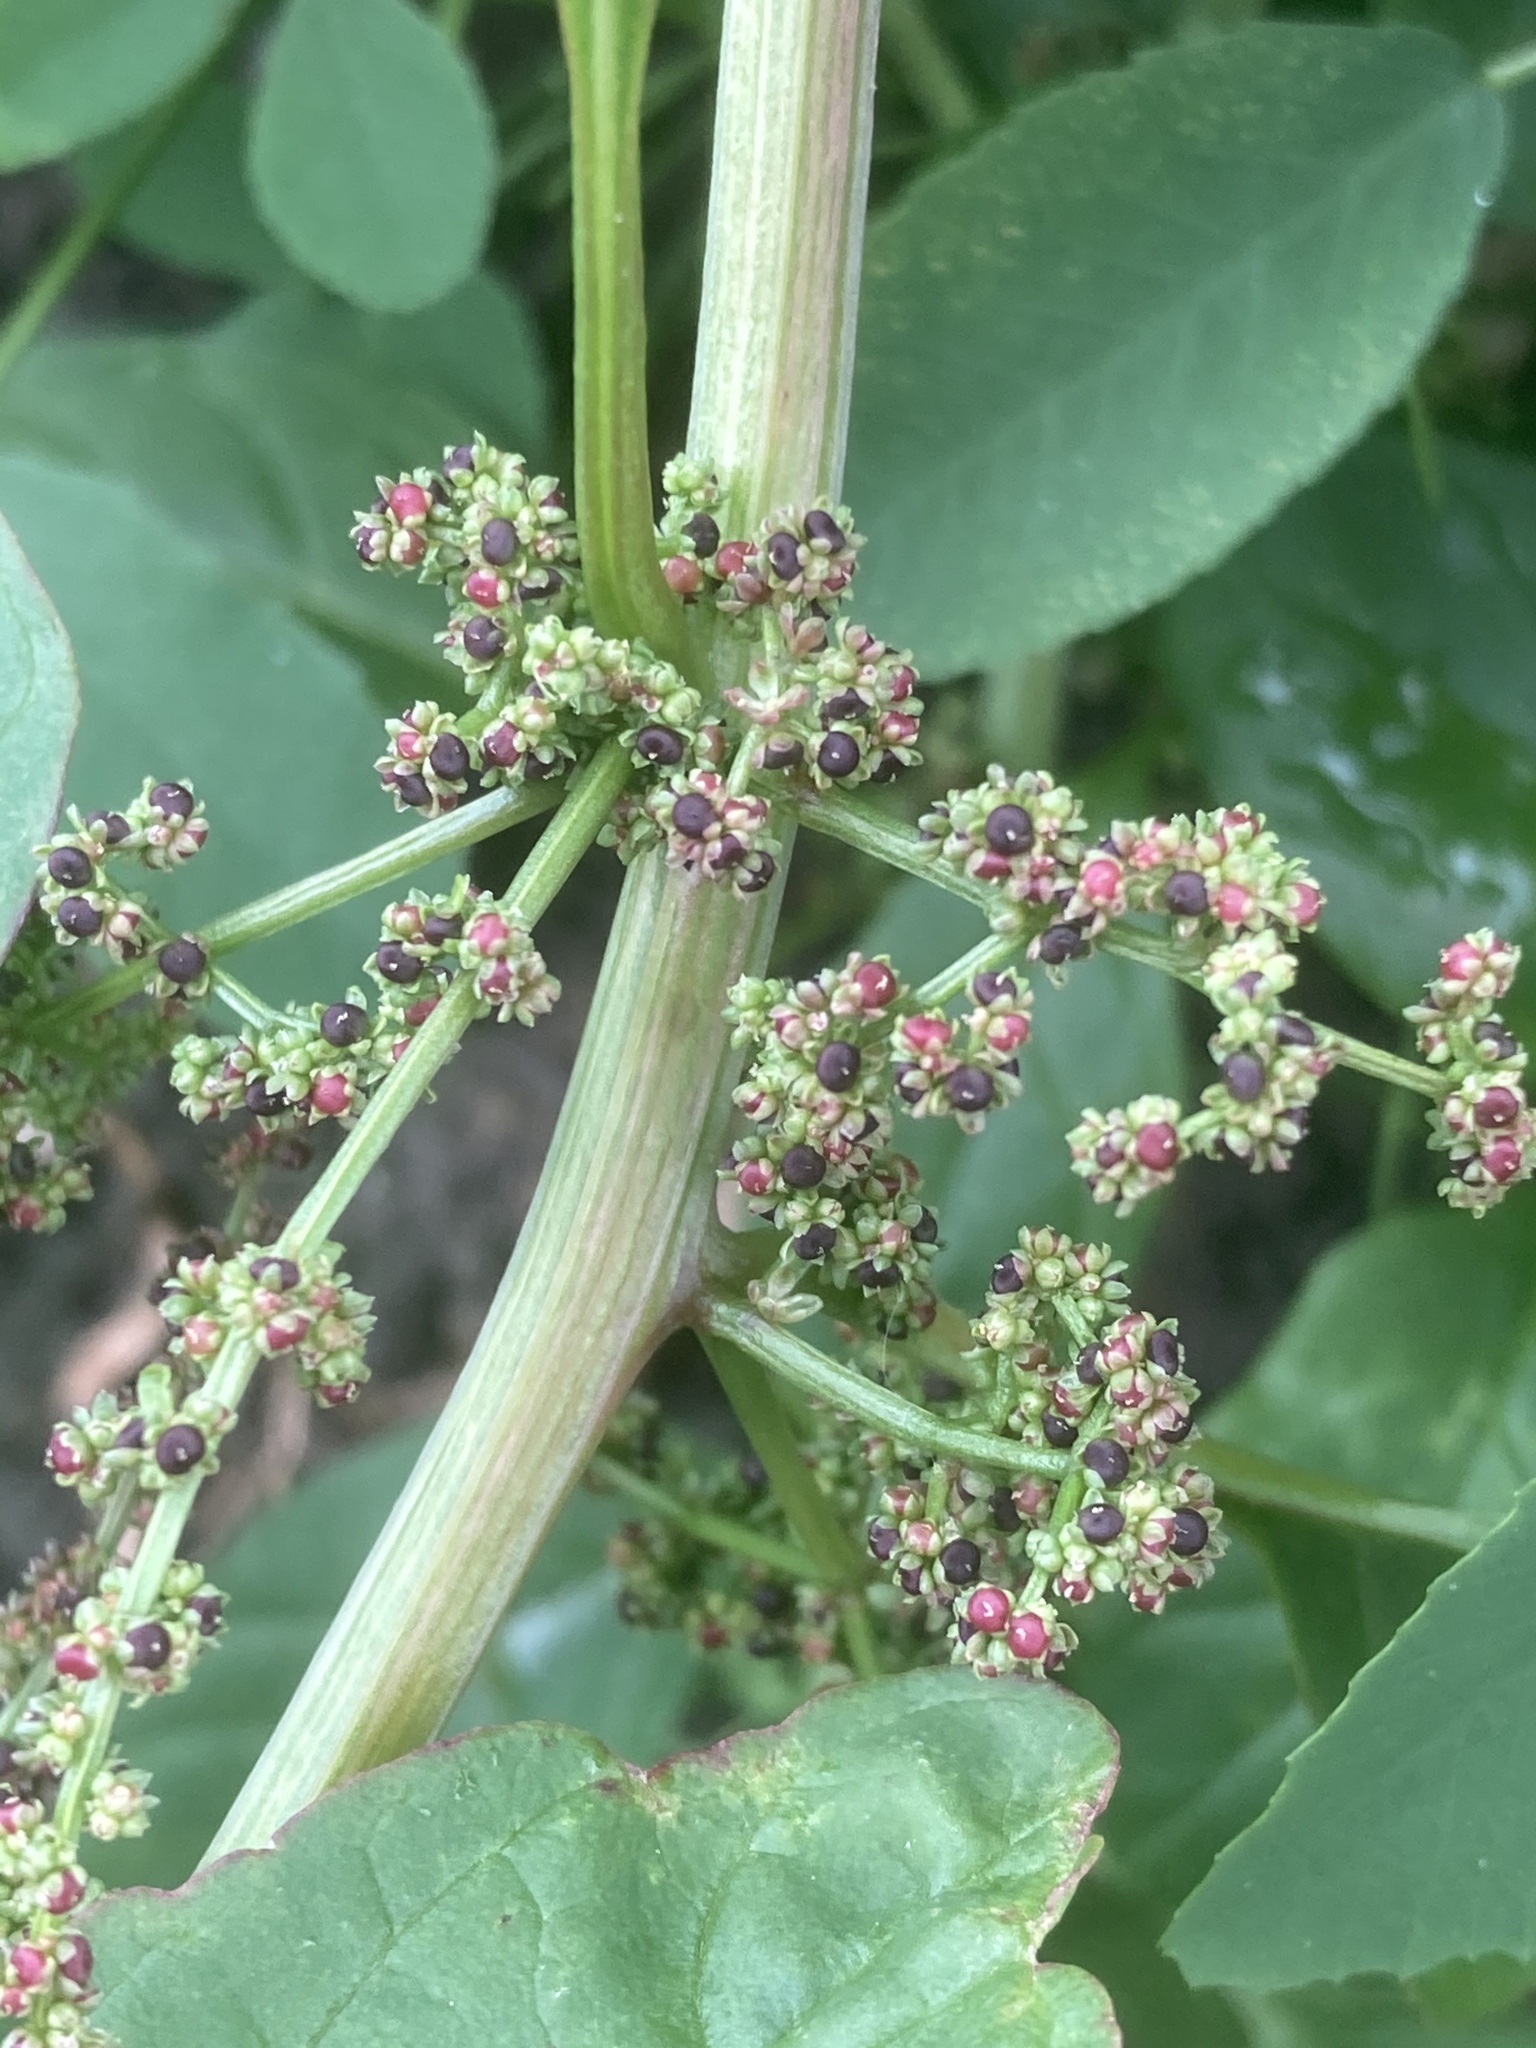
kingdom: Plantae
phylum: Tracheophyta
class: Magnoliopsida
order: Caryophyllales
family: Amaranthaceae
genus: Lipandra
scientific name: Lipandra polysperma
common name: Many-seed goosefoot
